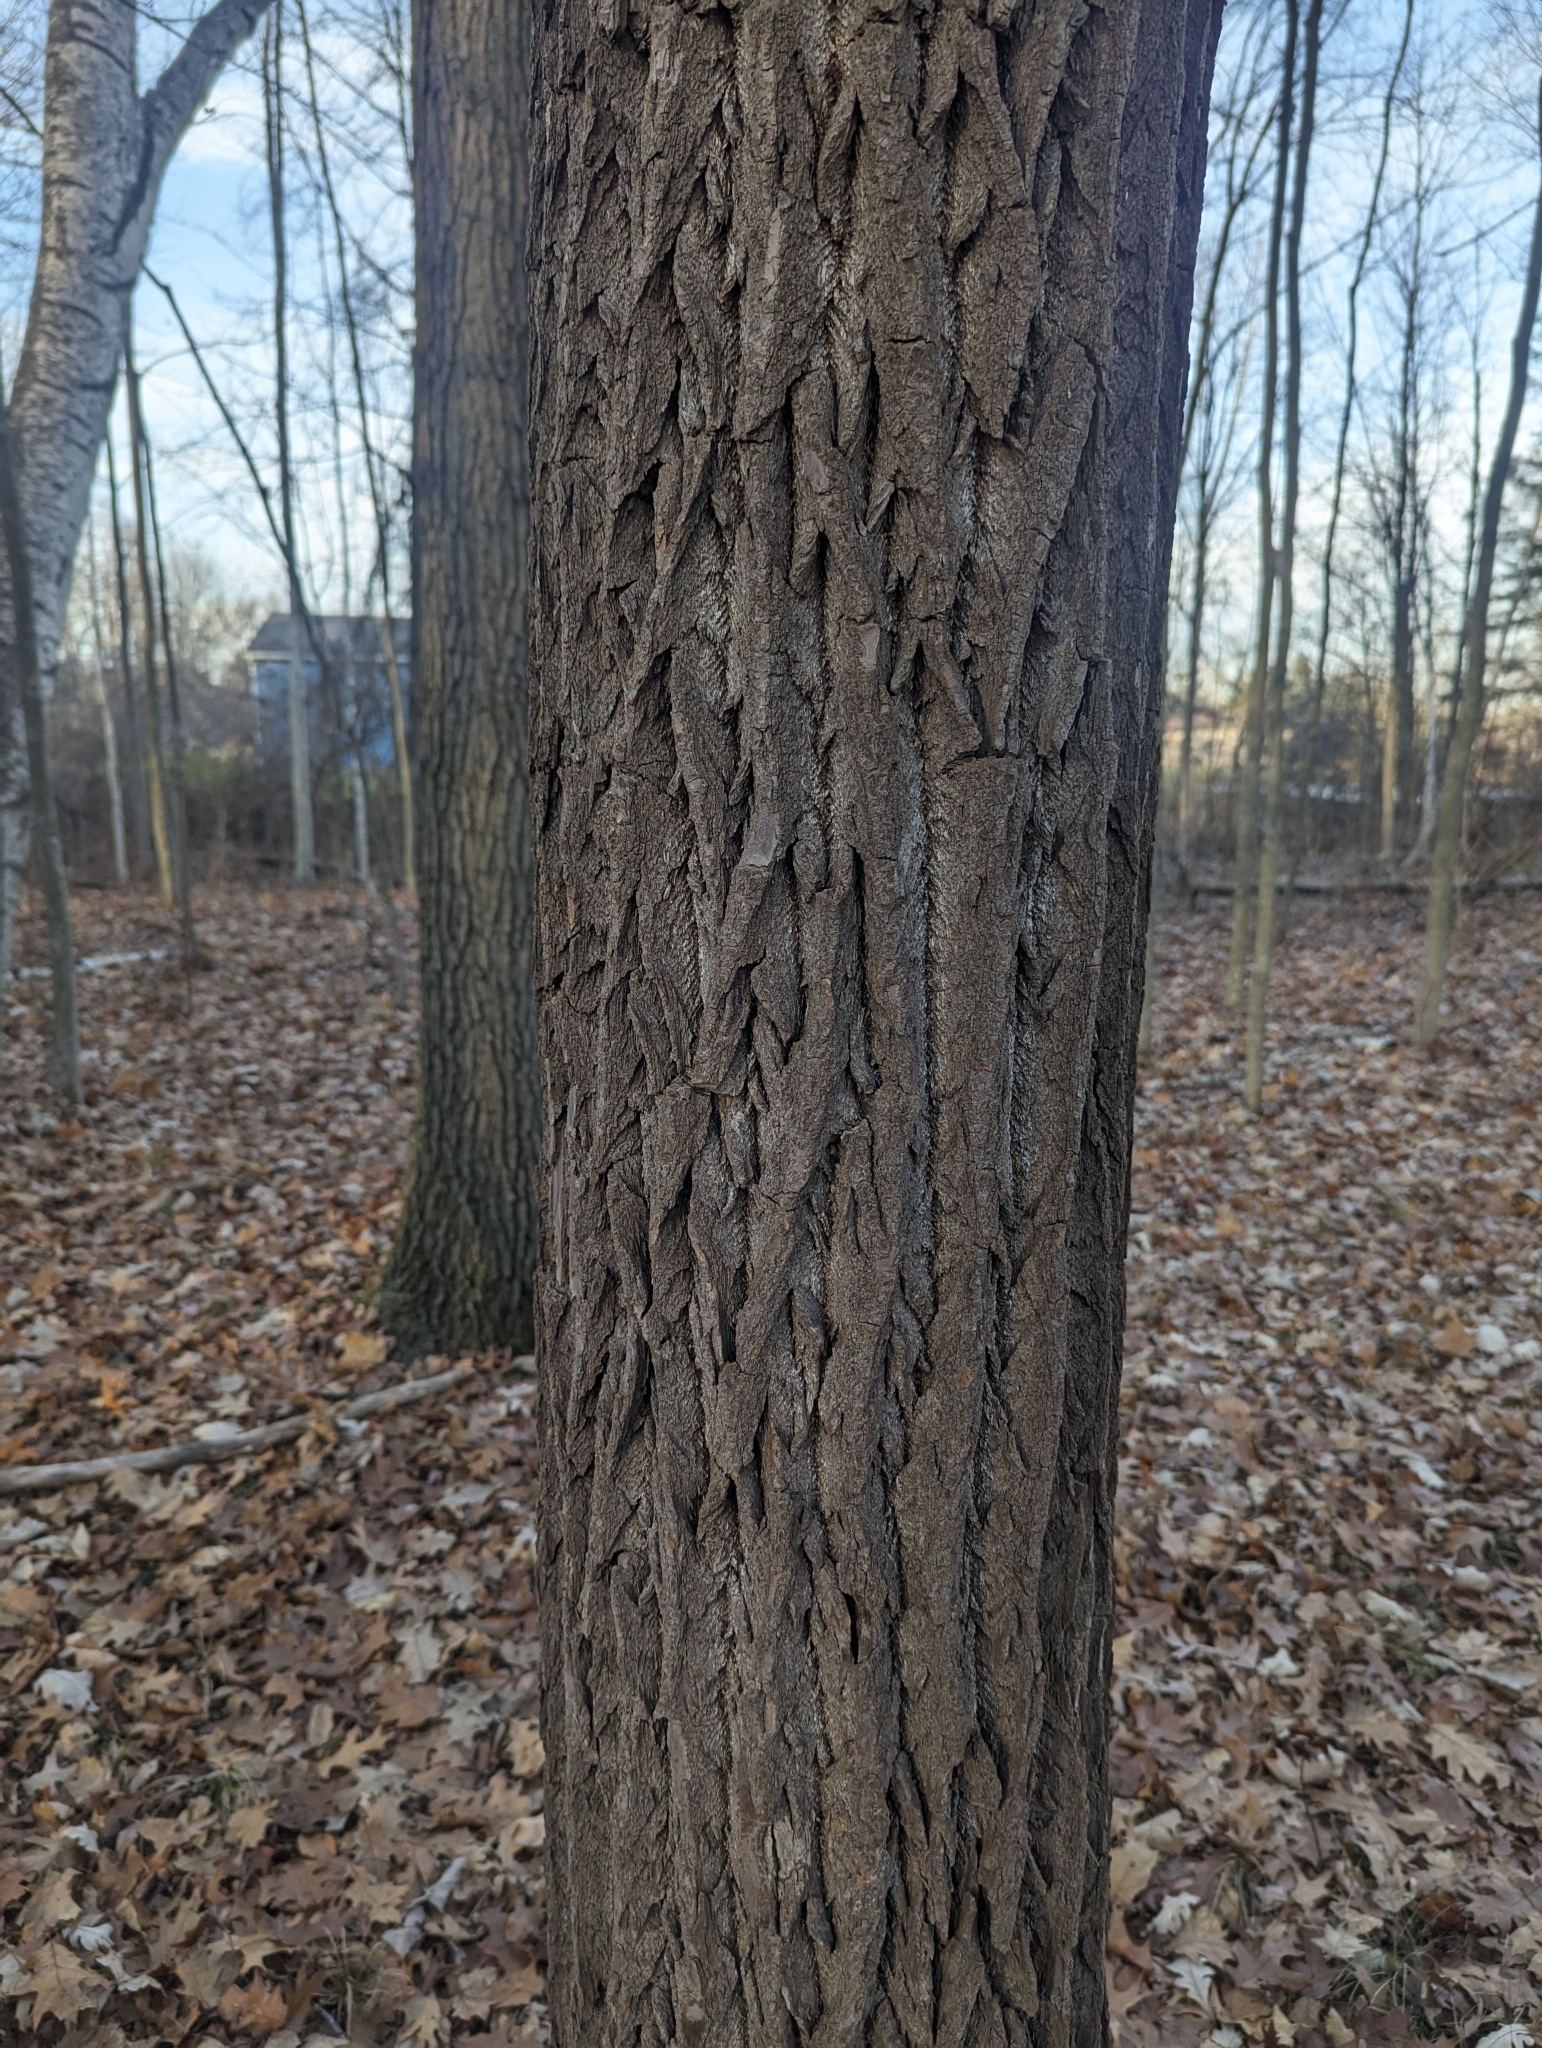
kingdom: Plantae
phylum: Tracheophyta
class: Magnoliopsida
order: Laurales
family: Lauraceae
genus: Sassafras
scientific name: Sassafras albidum
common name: Sassafras
